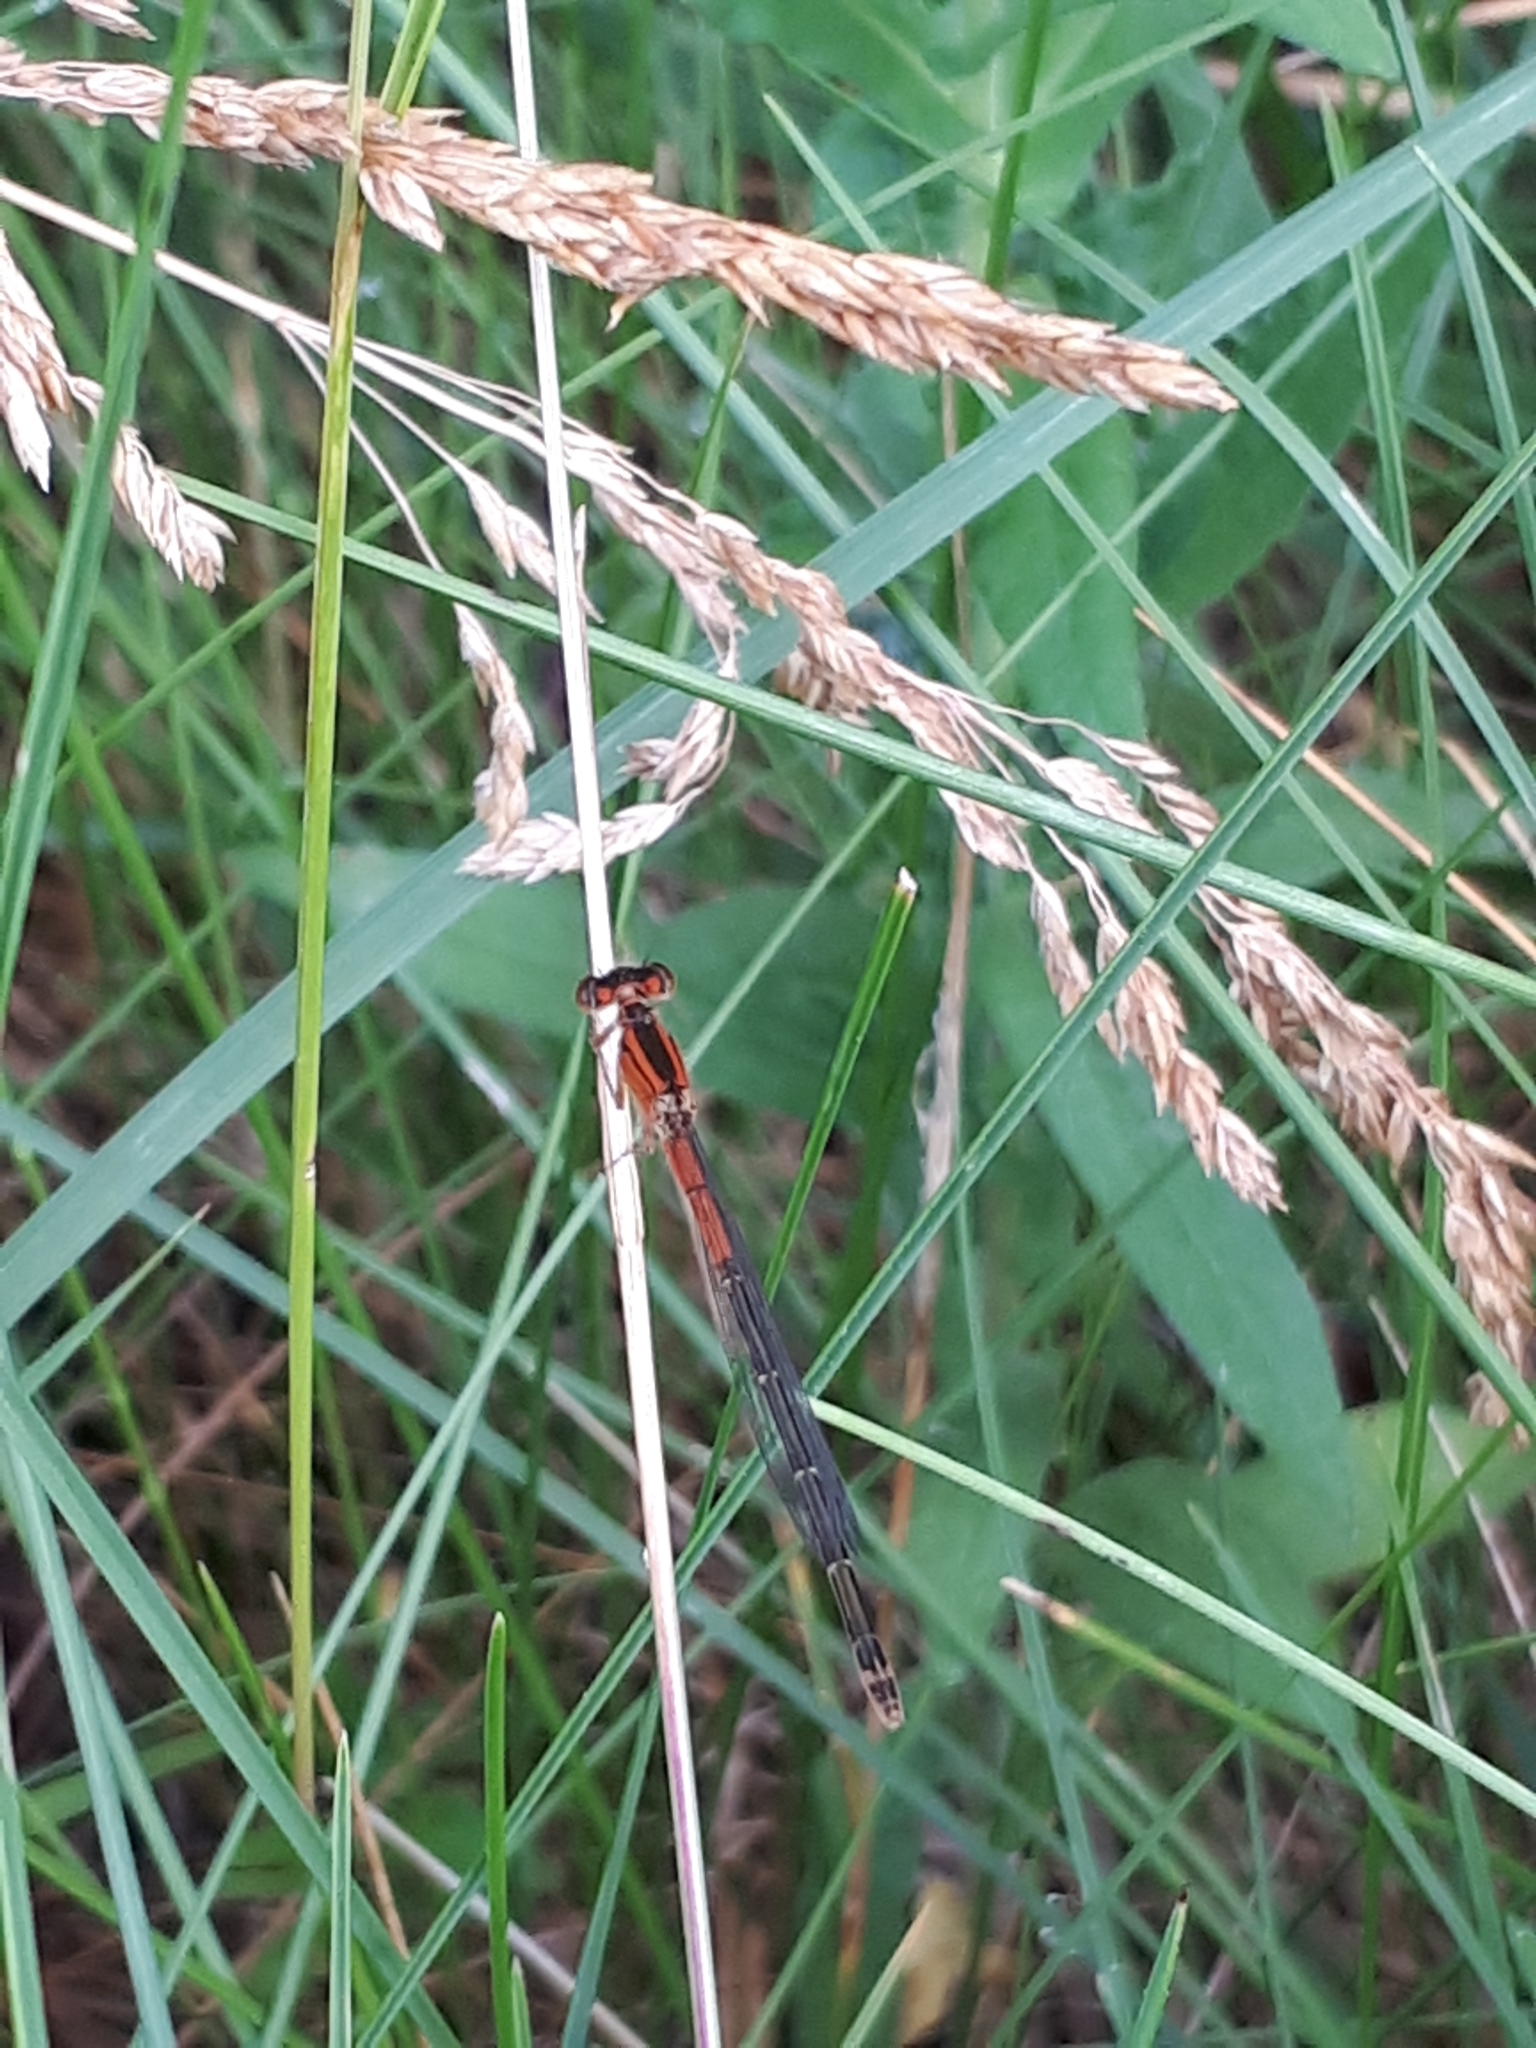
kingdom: Animalia
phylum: Arthropoda
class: Insecta
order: Odonata
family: Coenagrionidae
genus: Ischnura
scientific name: Ischnura verticalis
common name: Eastern forktail
